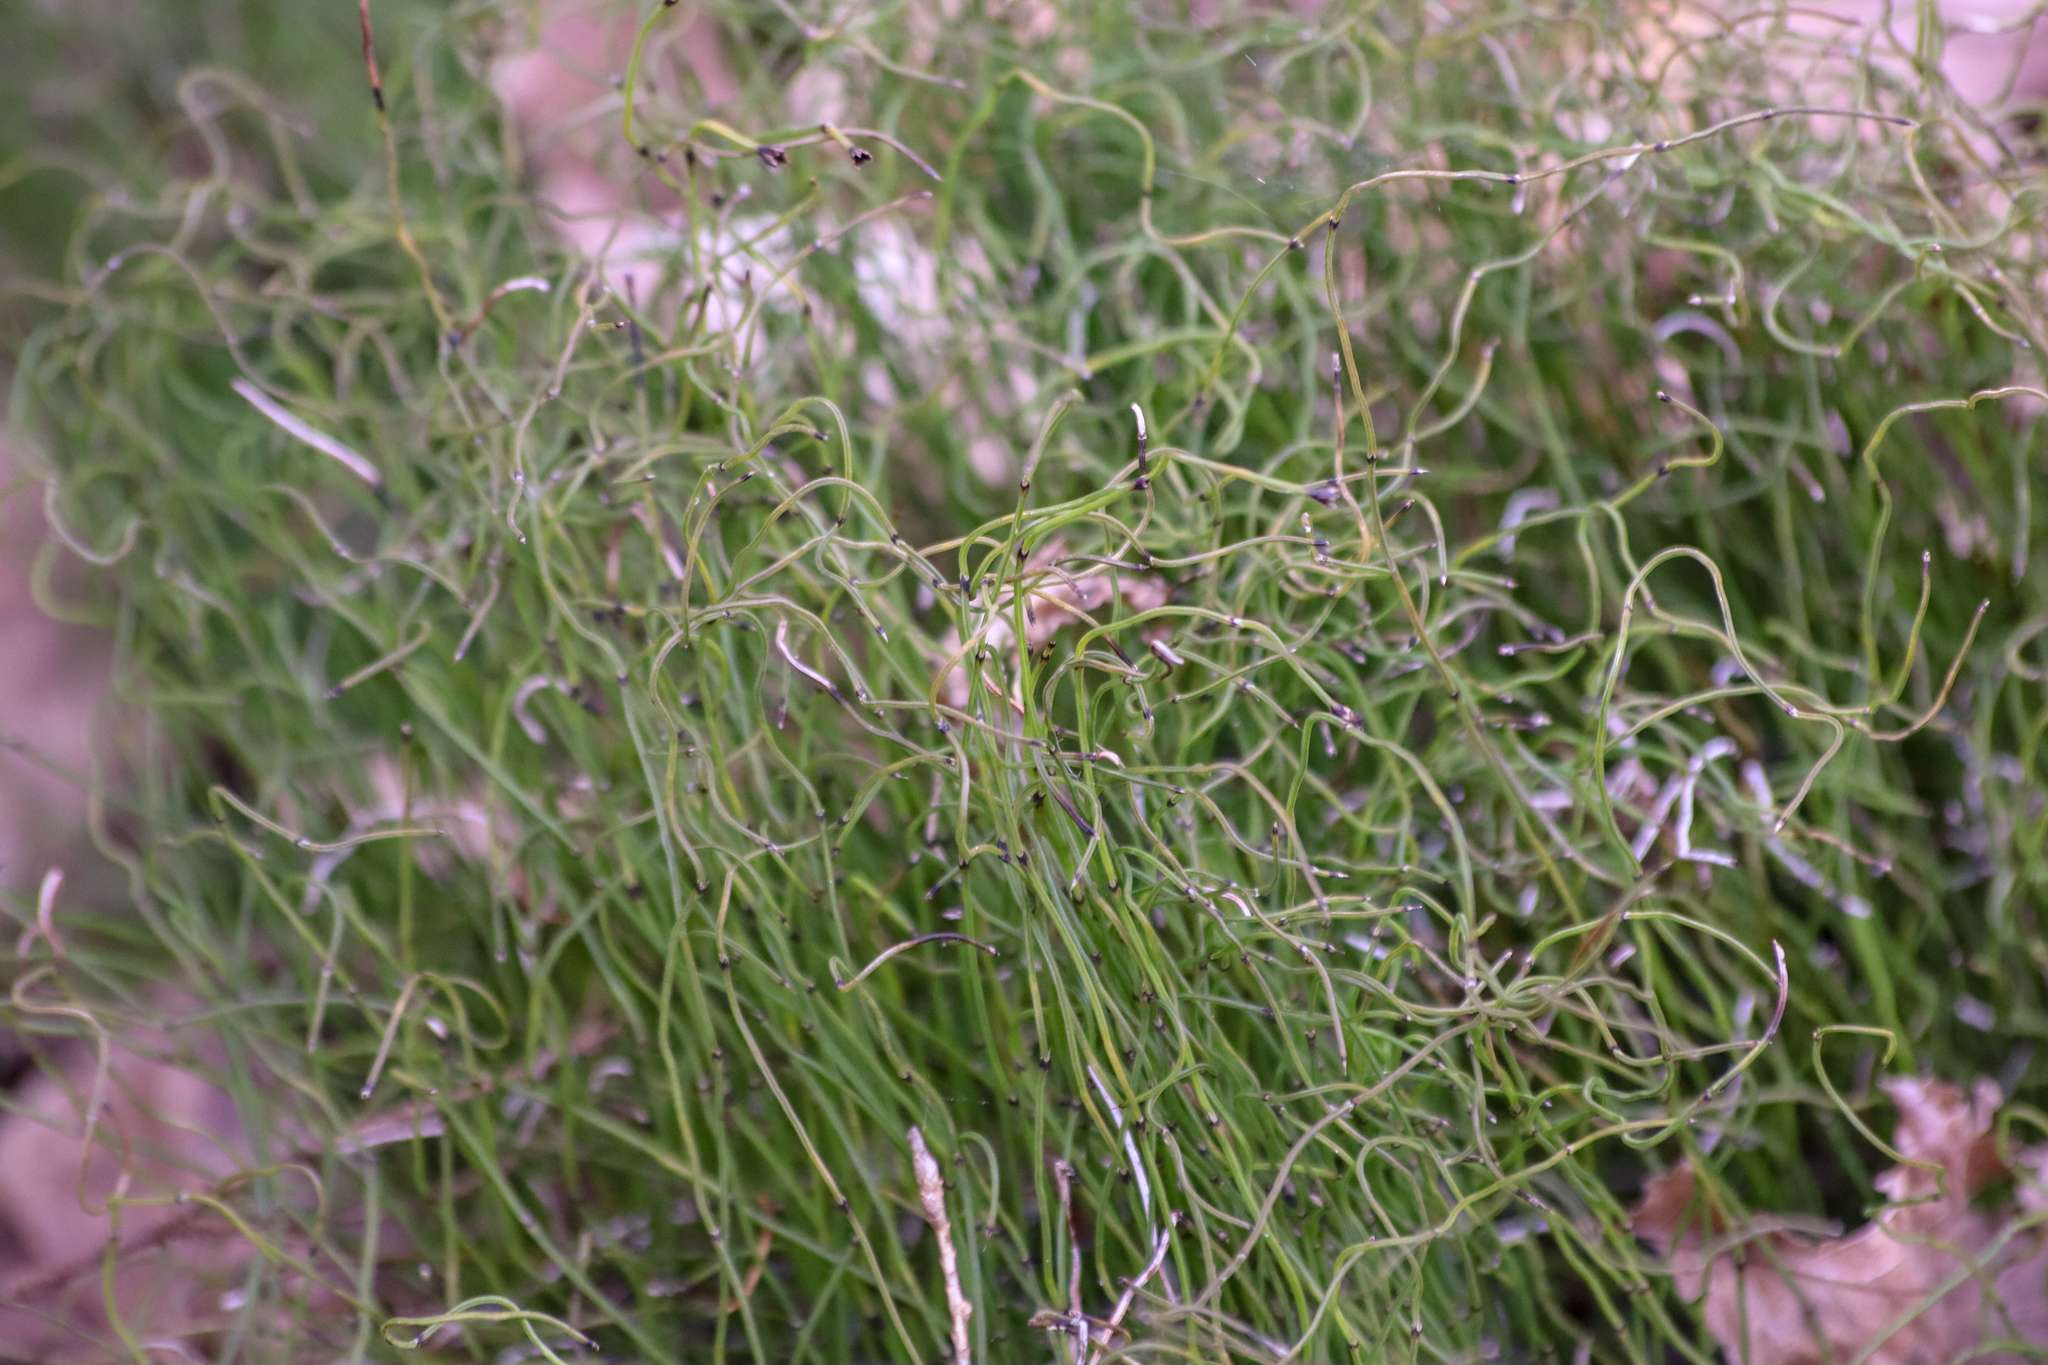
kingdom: Plantae
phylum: Tracheophyta
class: Polypodiopsida
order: Equisetales
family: Equisetaceae
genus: Equisetum
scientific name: Equisetum scirpoides
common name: Delicate horsetail
